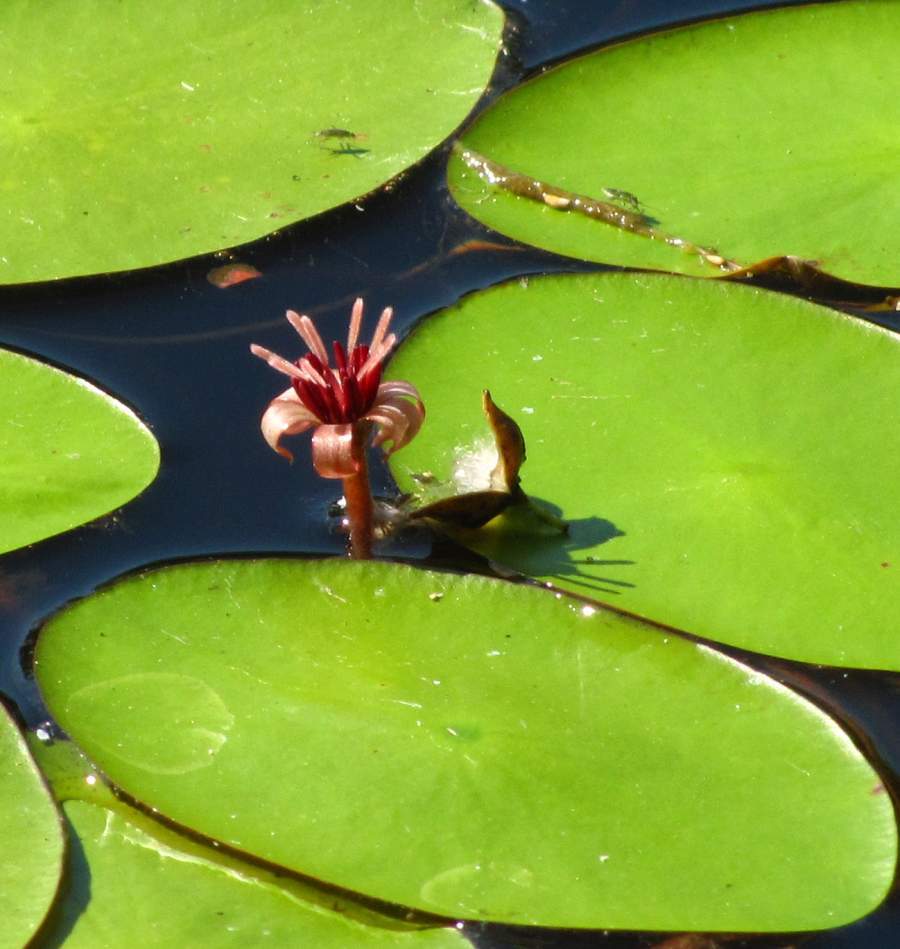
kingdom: Plantae
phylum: Tracheophyta
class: Magnoliopsida
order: Nymphaeales
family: Cabombaceae
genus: Brasenia
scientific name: Brasenia schreberi
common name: Water-shield
